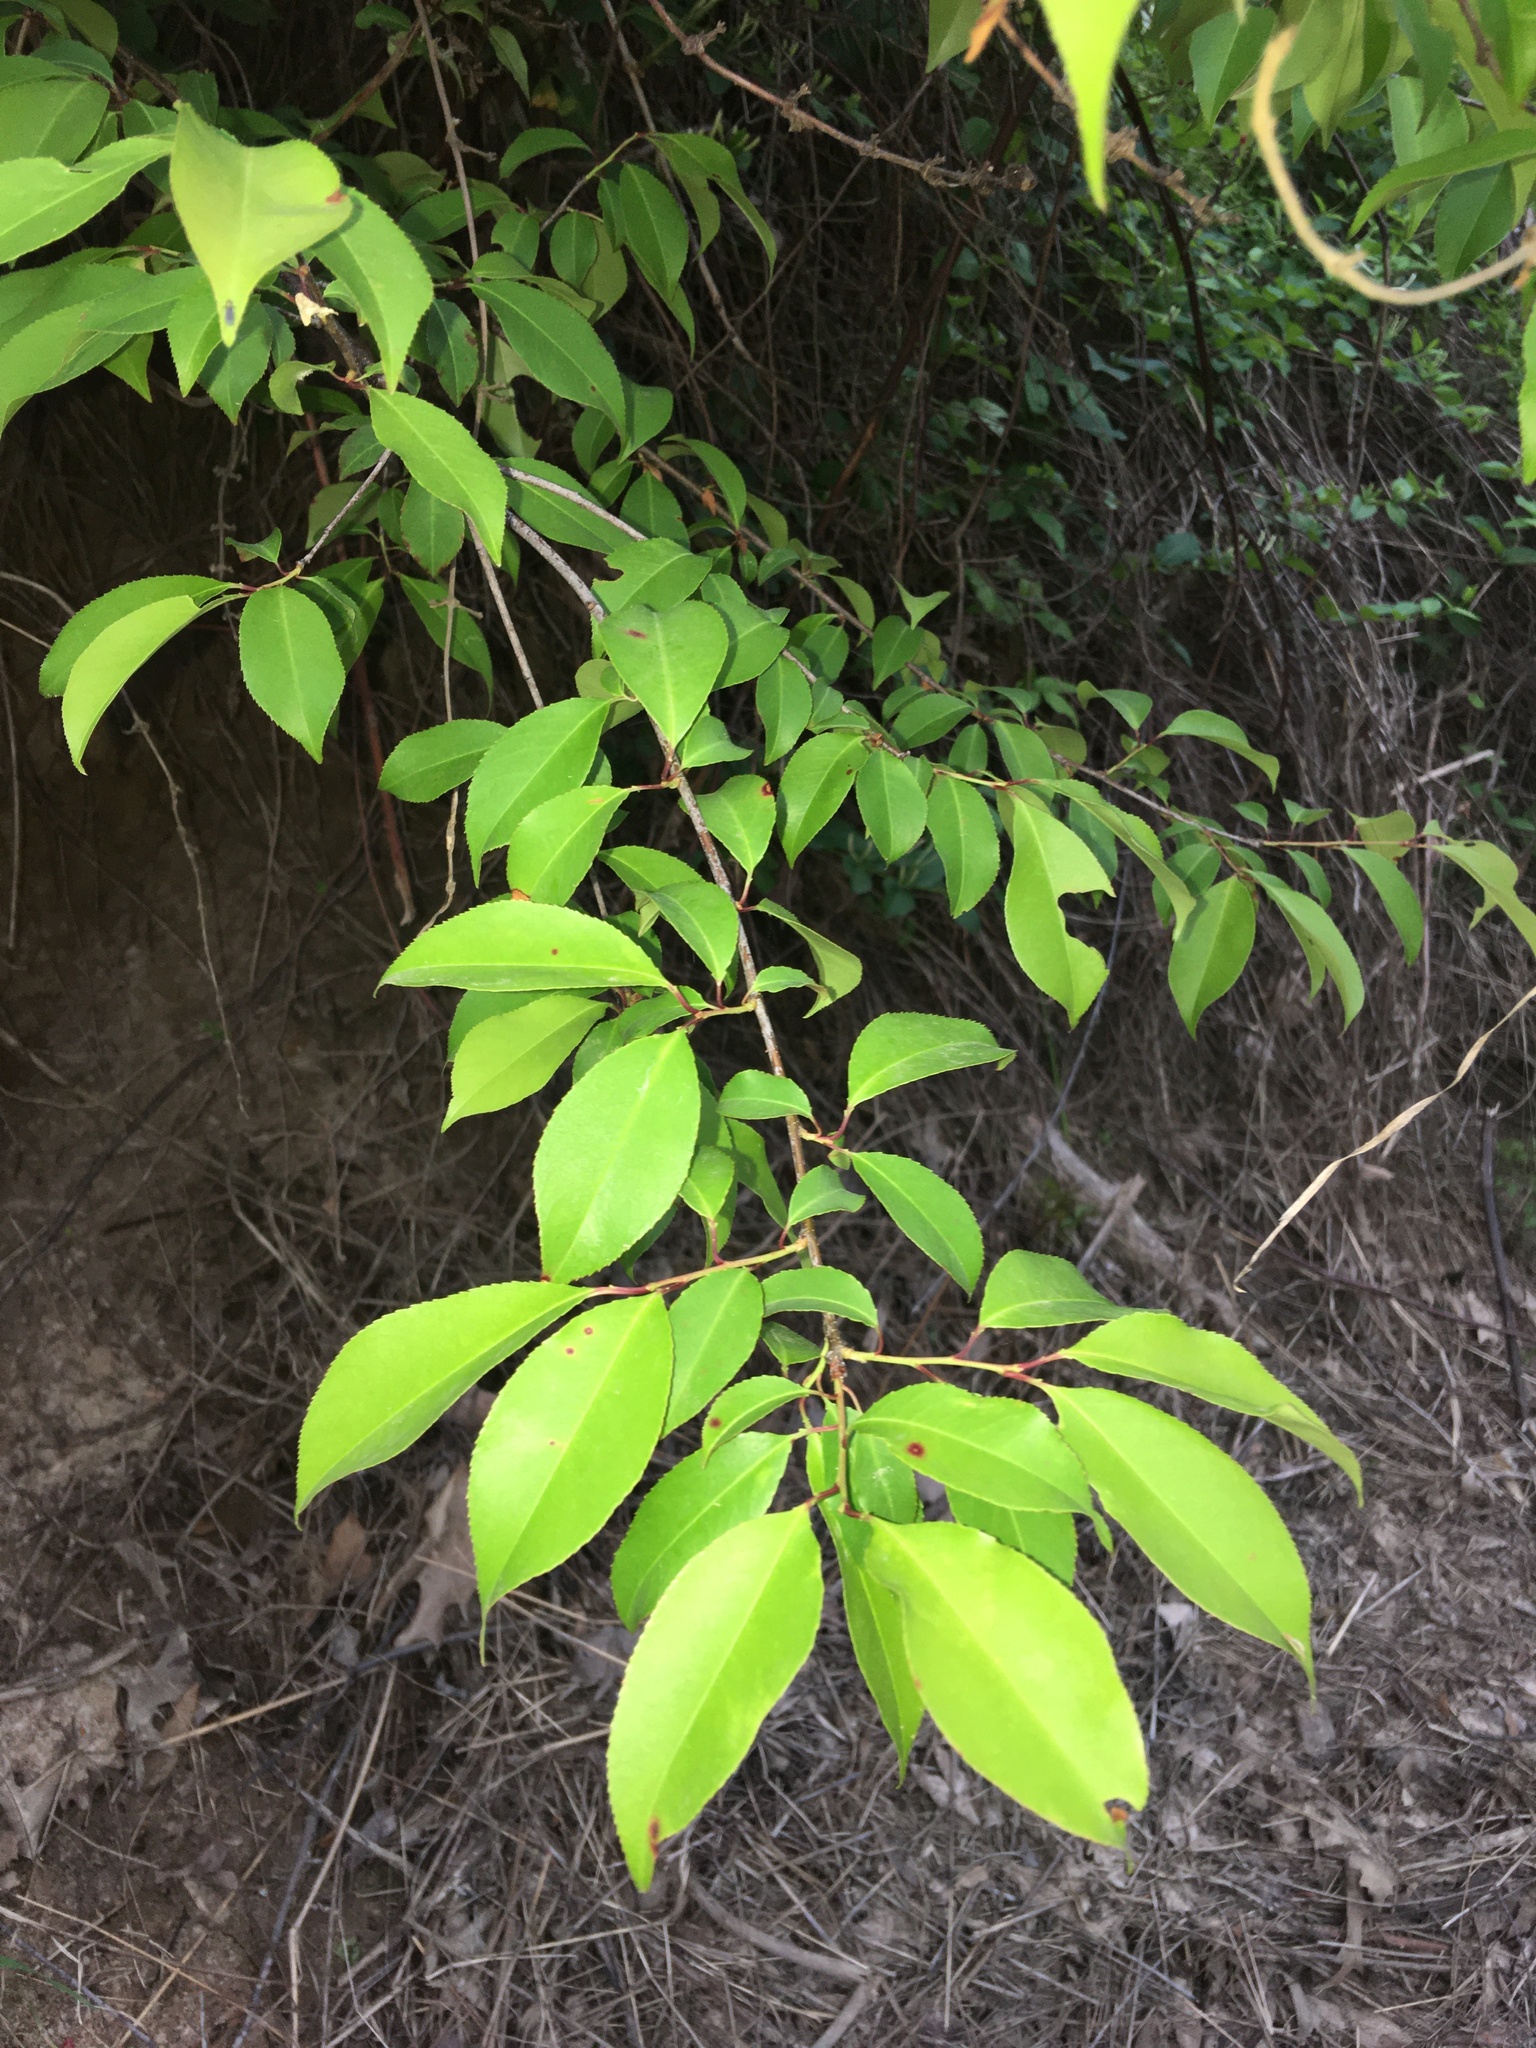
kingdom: Plantae
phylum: Tracheophyta
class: Magnoliopsida
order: Rosales
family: Rosaceae
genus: Prunus
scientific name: Prunus serotina
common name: Black cherry
